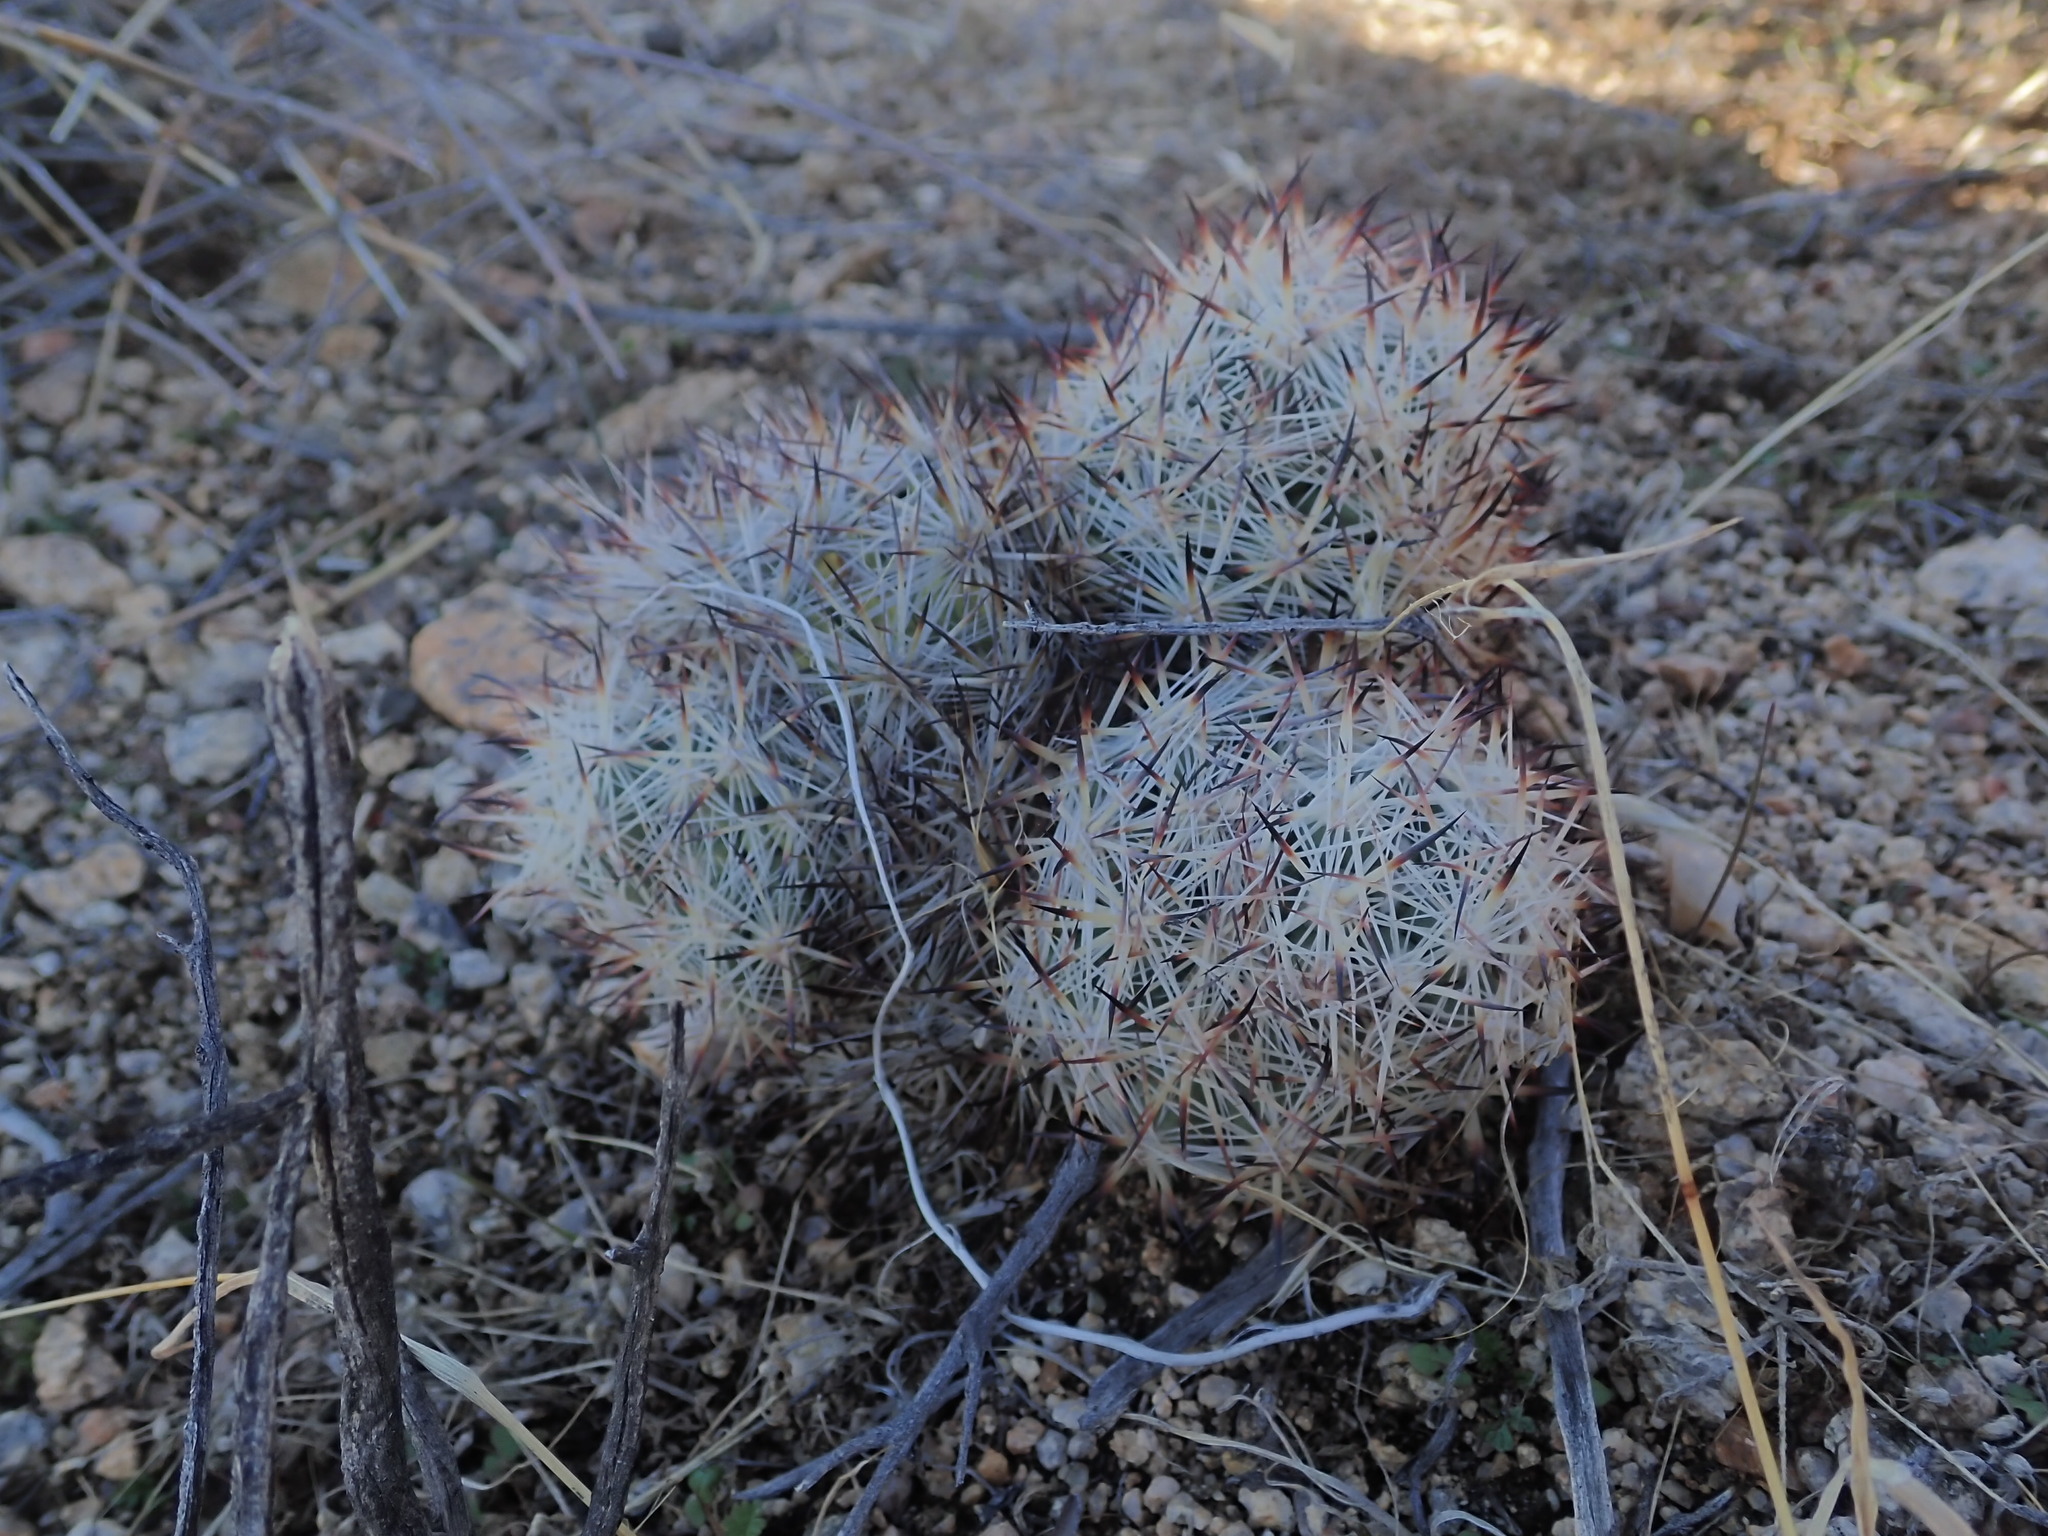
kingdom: Plantae
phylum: Tracheophyta
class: Magnoliopsida
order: Caryophyllales
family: Cactaceae
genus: Pelecyphora
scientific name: Pelecyphora alversonii
